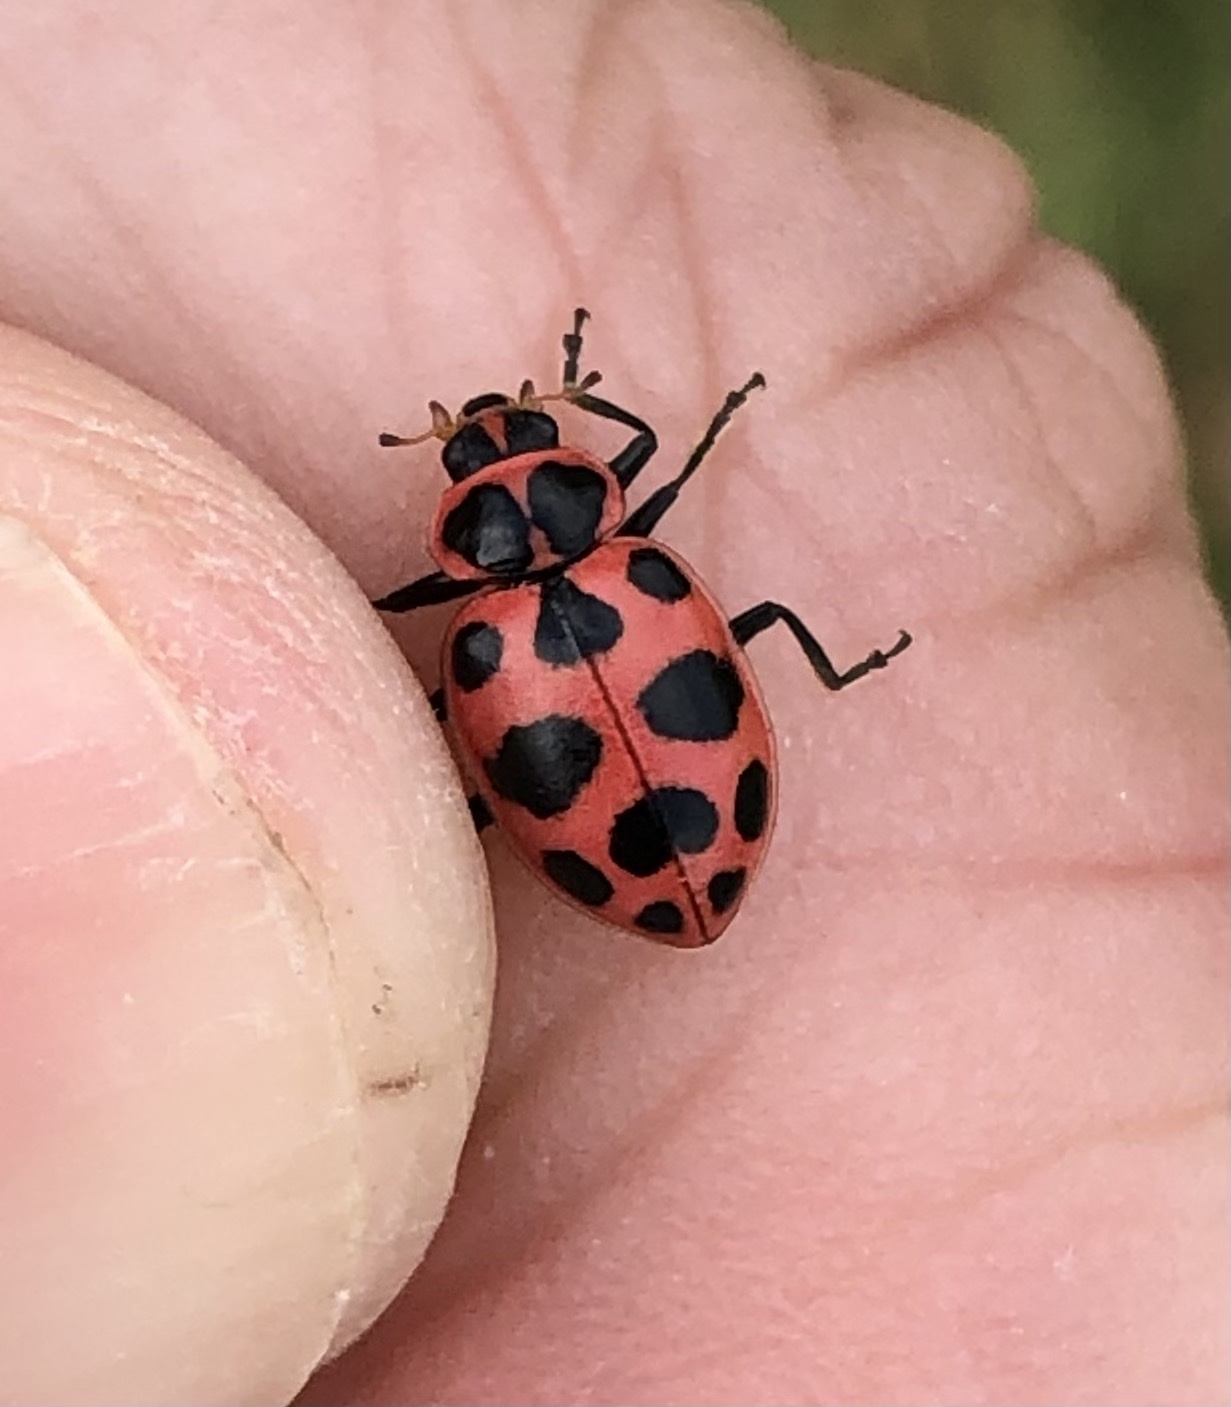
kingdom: Animalia
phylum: Arthropoda
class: Insecta
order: Coleoptera
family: Coccinellidae
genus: Coleomegilla
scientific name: Coleomegilla maculata
